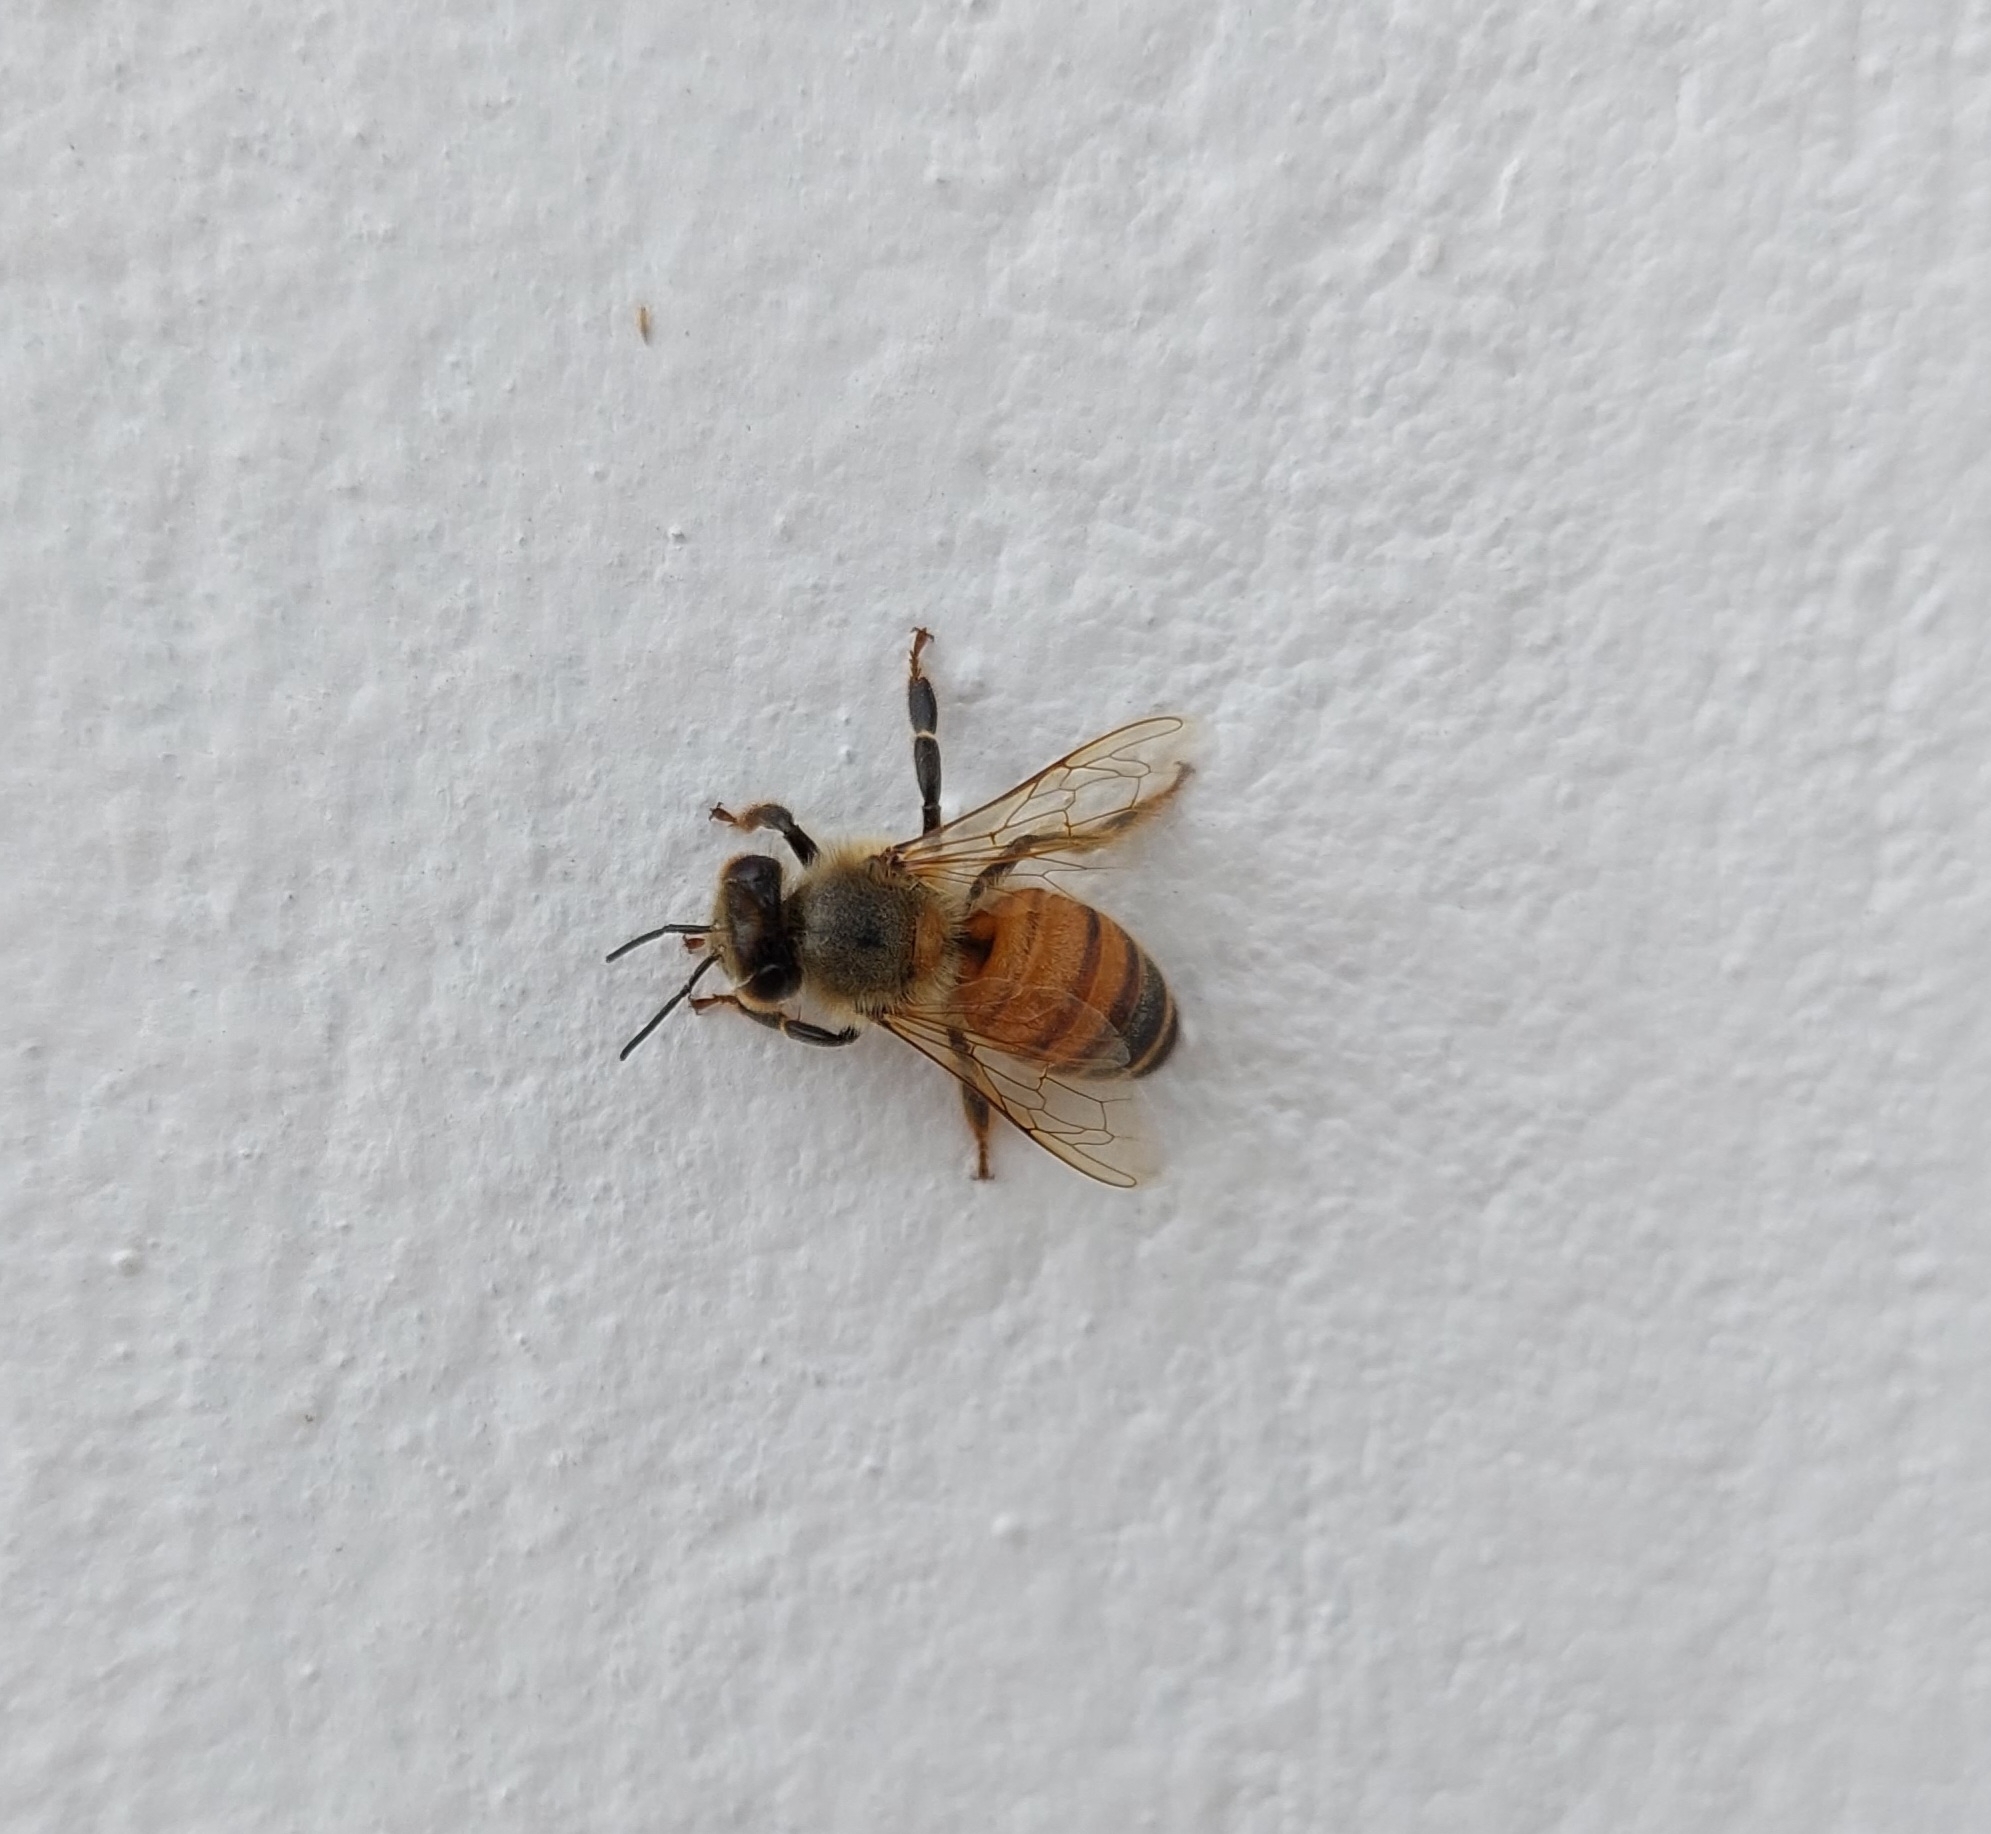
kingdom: Animalia
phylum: Arthropoda
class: Insecta
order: Hymenoptera
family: Apidae
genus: Apis
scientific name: Apis mellifera
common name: Honey bee
